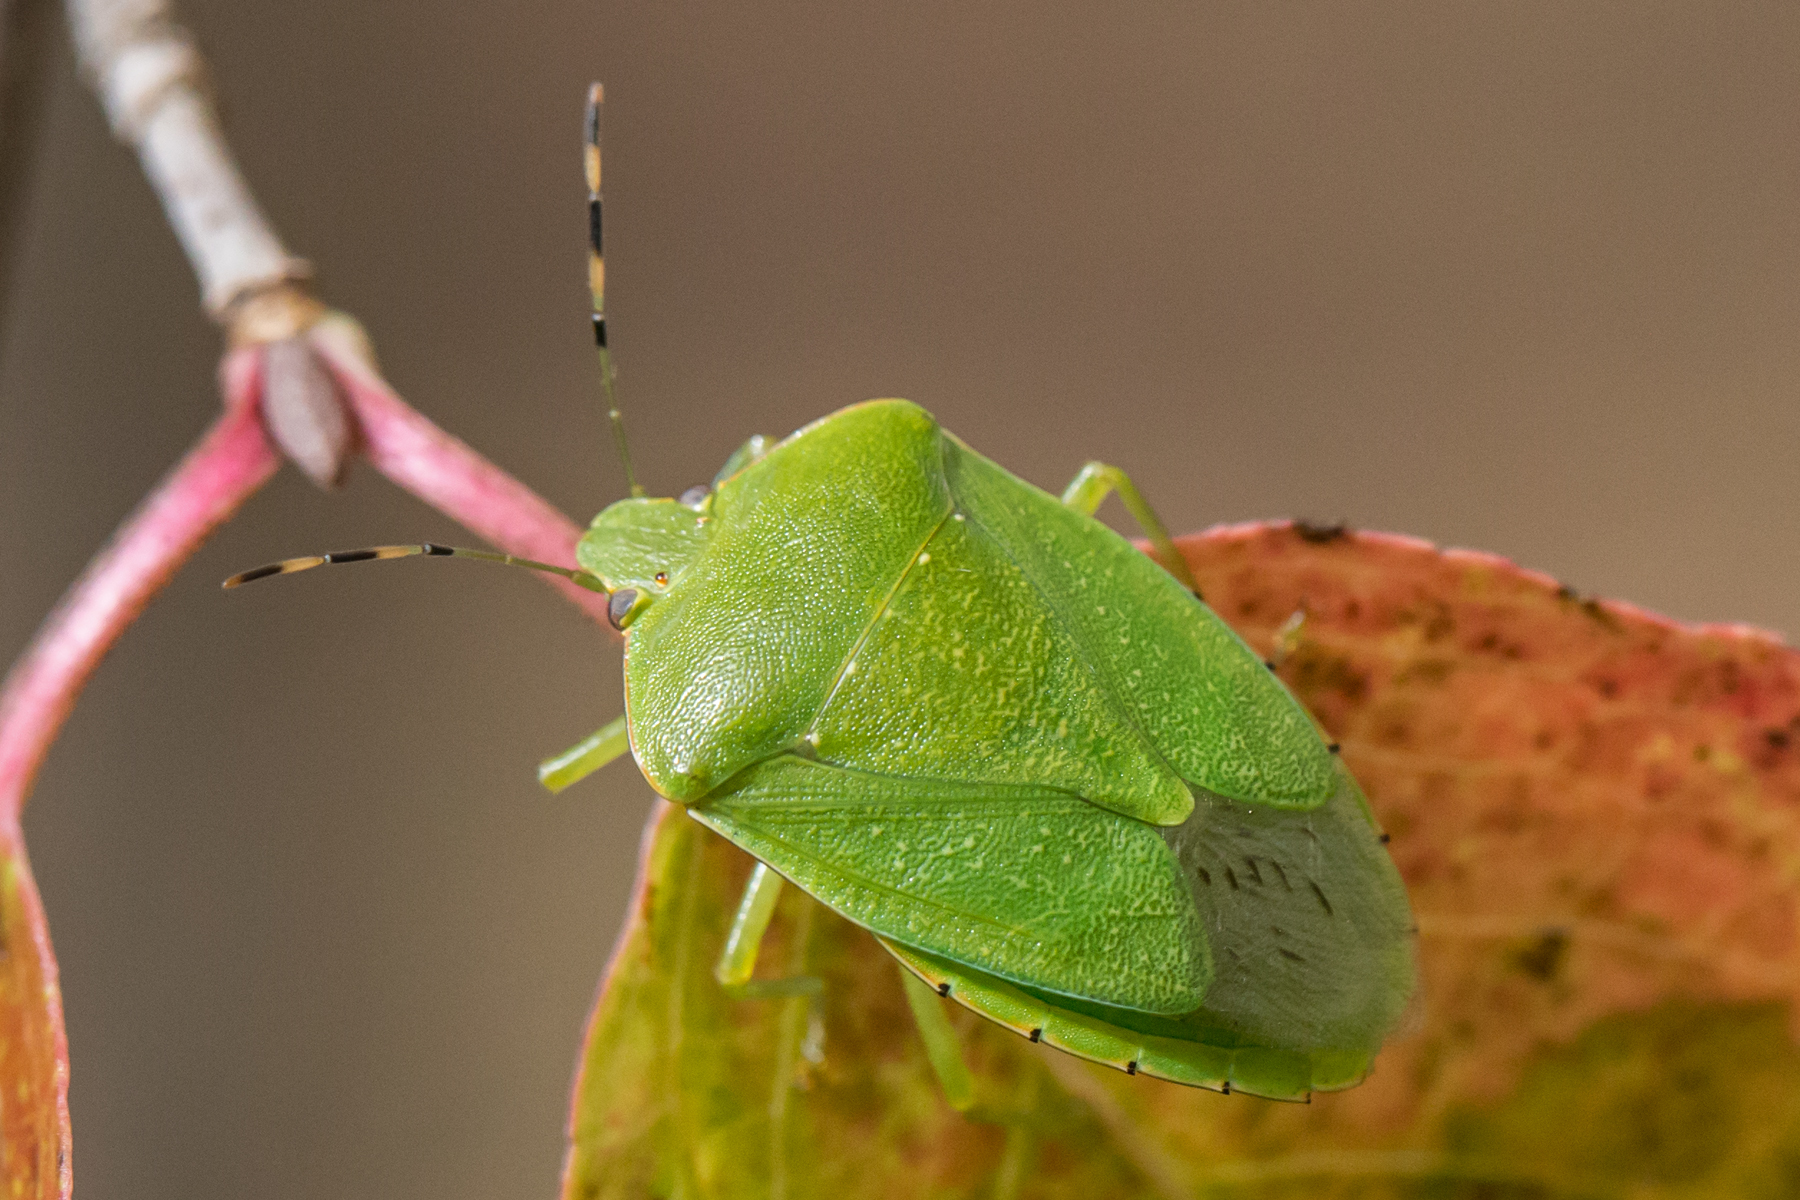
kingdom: Animalia
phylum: Arthropoda
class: Insecta
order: Hemiptera
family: Pentatomidae
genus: Chinavia
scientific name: Chinavia hilaris
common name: Green stink bug
